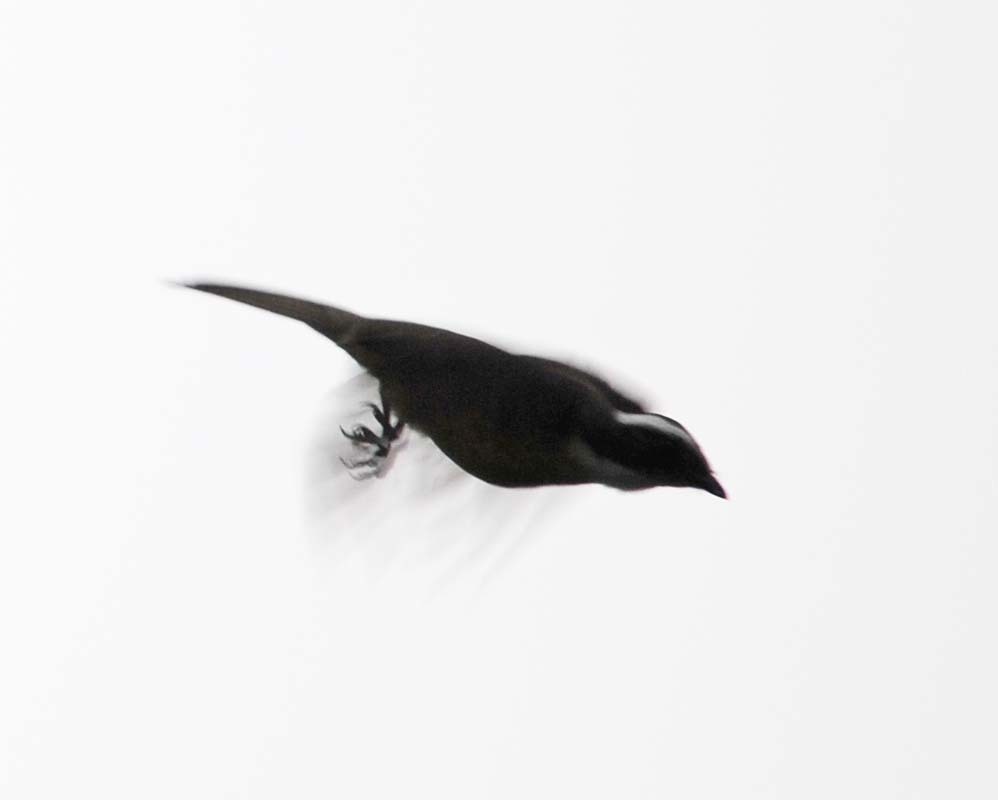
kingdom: Animalia
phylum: Chordata
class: Aves
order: Passeriformes
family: Tyrannidae
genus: Myiozetetes
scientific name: Myiozetetes similis
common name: Social flycatcher
